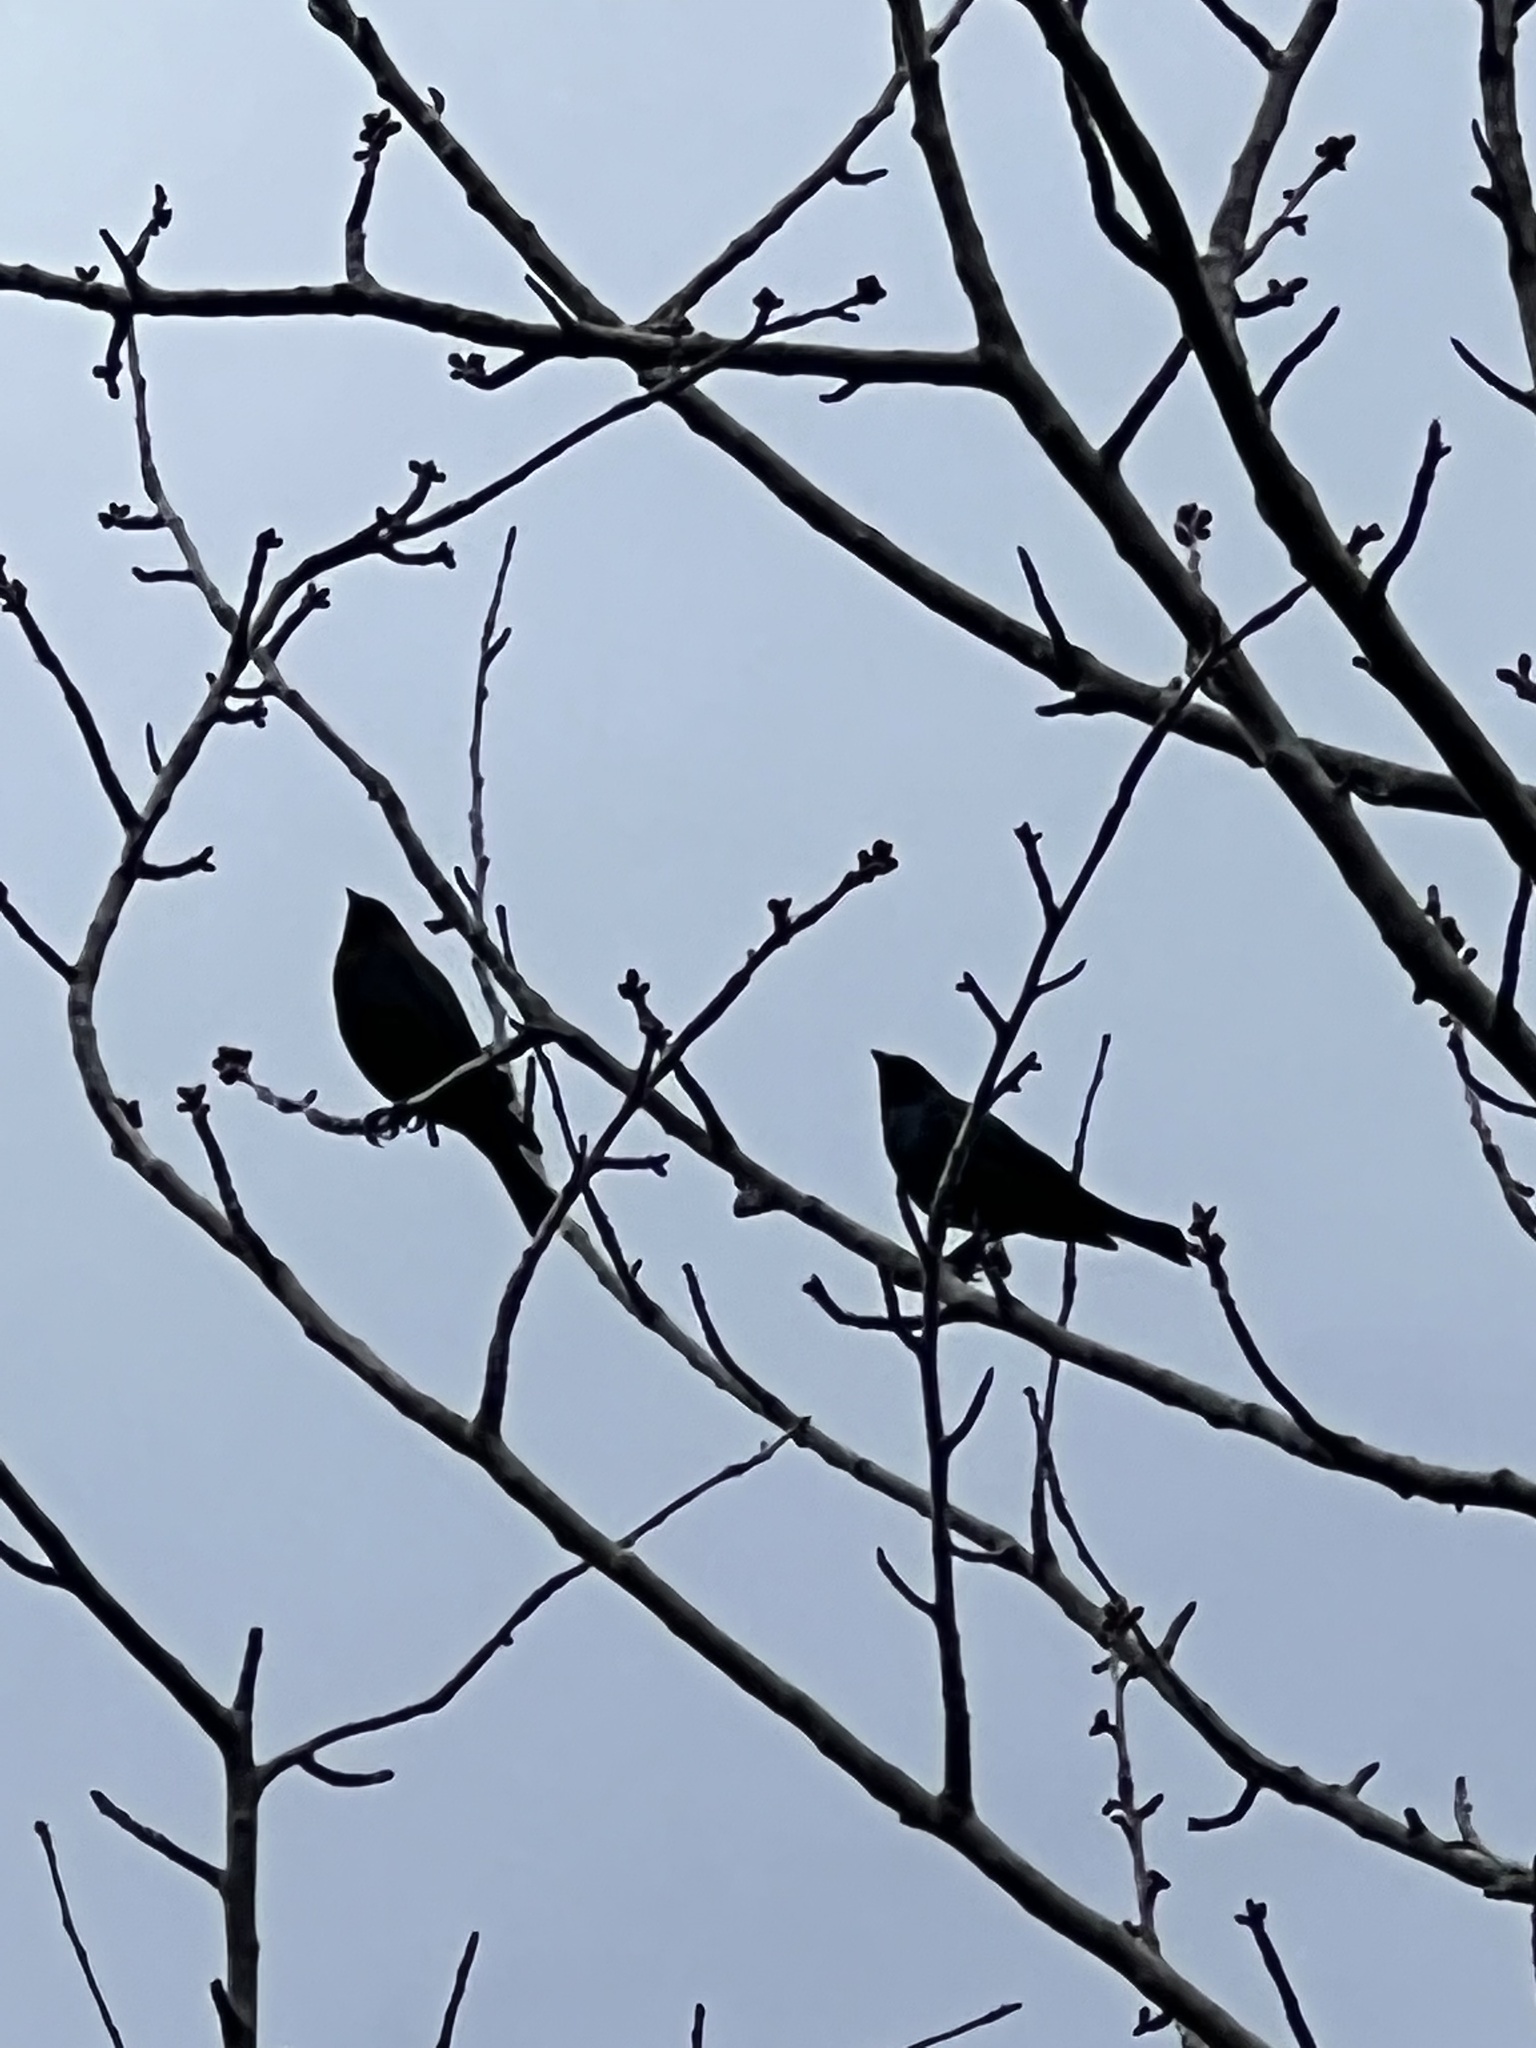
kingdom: Animalia
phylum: Chordata
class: Aves
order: Passeriformes
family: Icteridae
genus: Molothrus
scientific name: Molothrus ater
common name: Brown-headed cowbird
